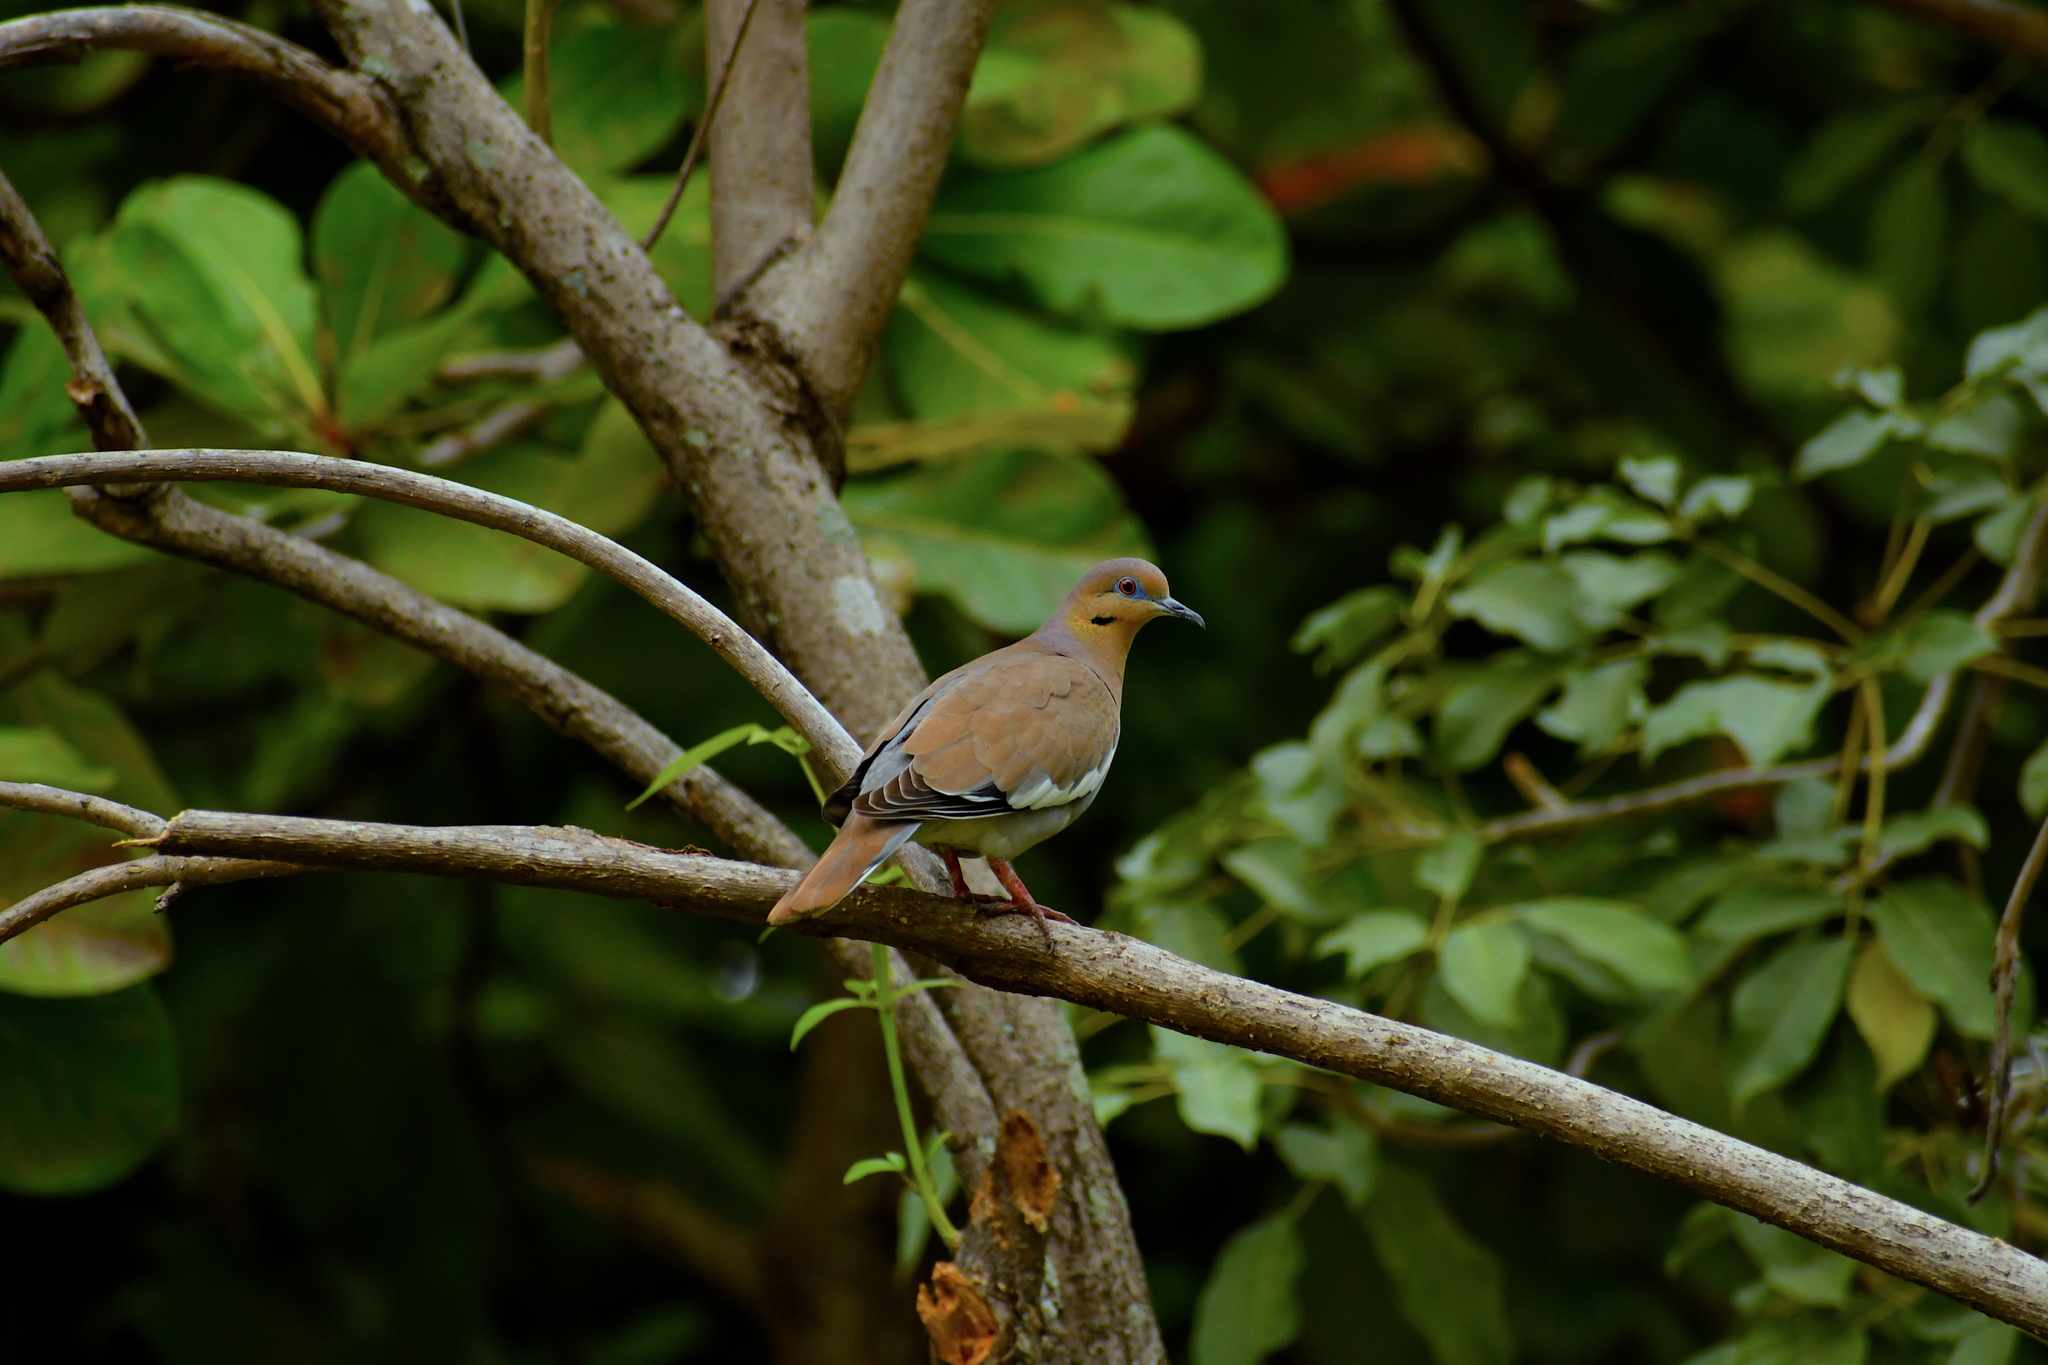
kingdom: Animalia
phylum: Chordata
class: Aves
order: Columbiformes
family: Columbidae
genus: Zenaida
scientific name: Zenaida asiatica
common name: White-winged dove
